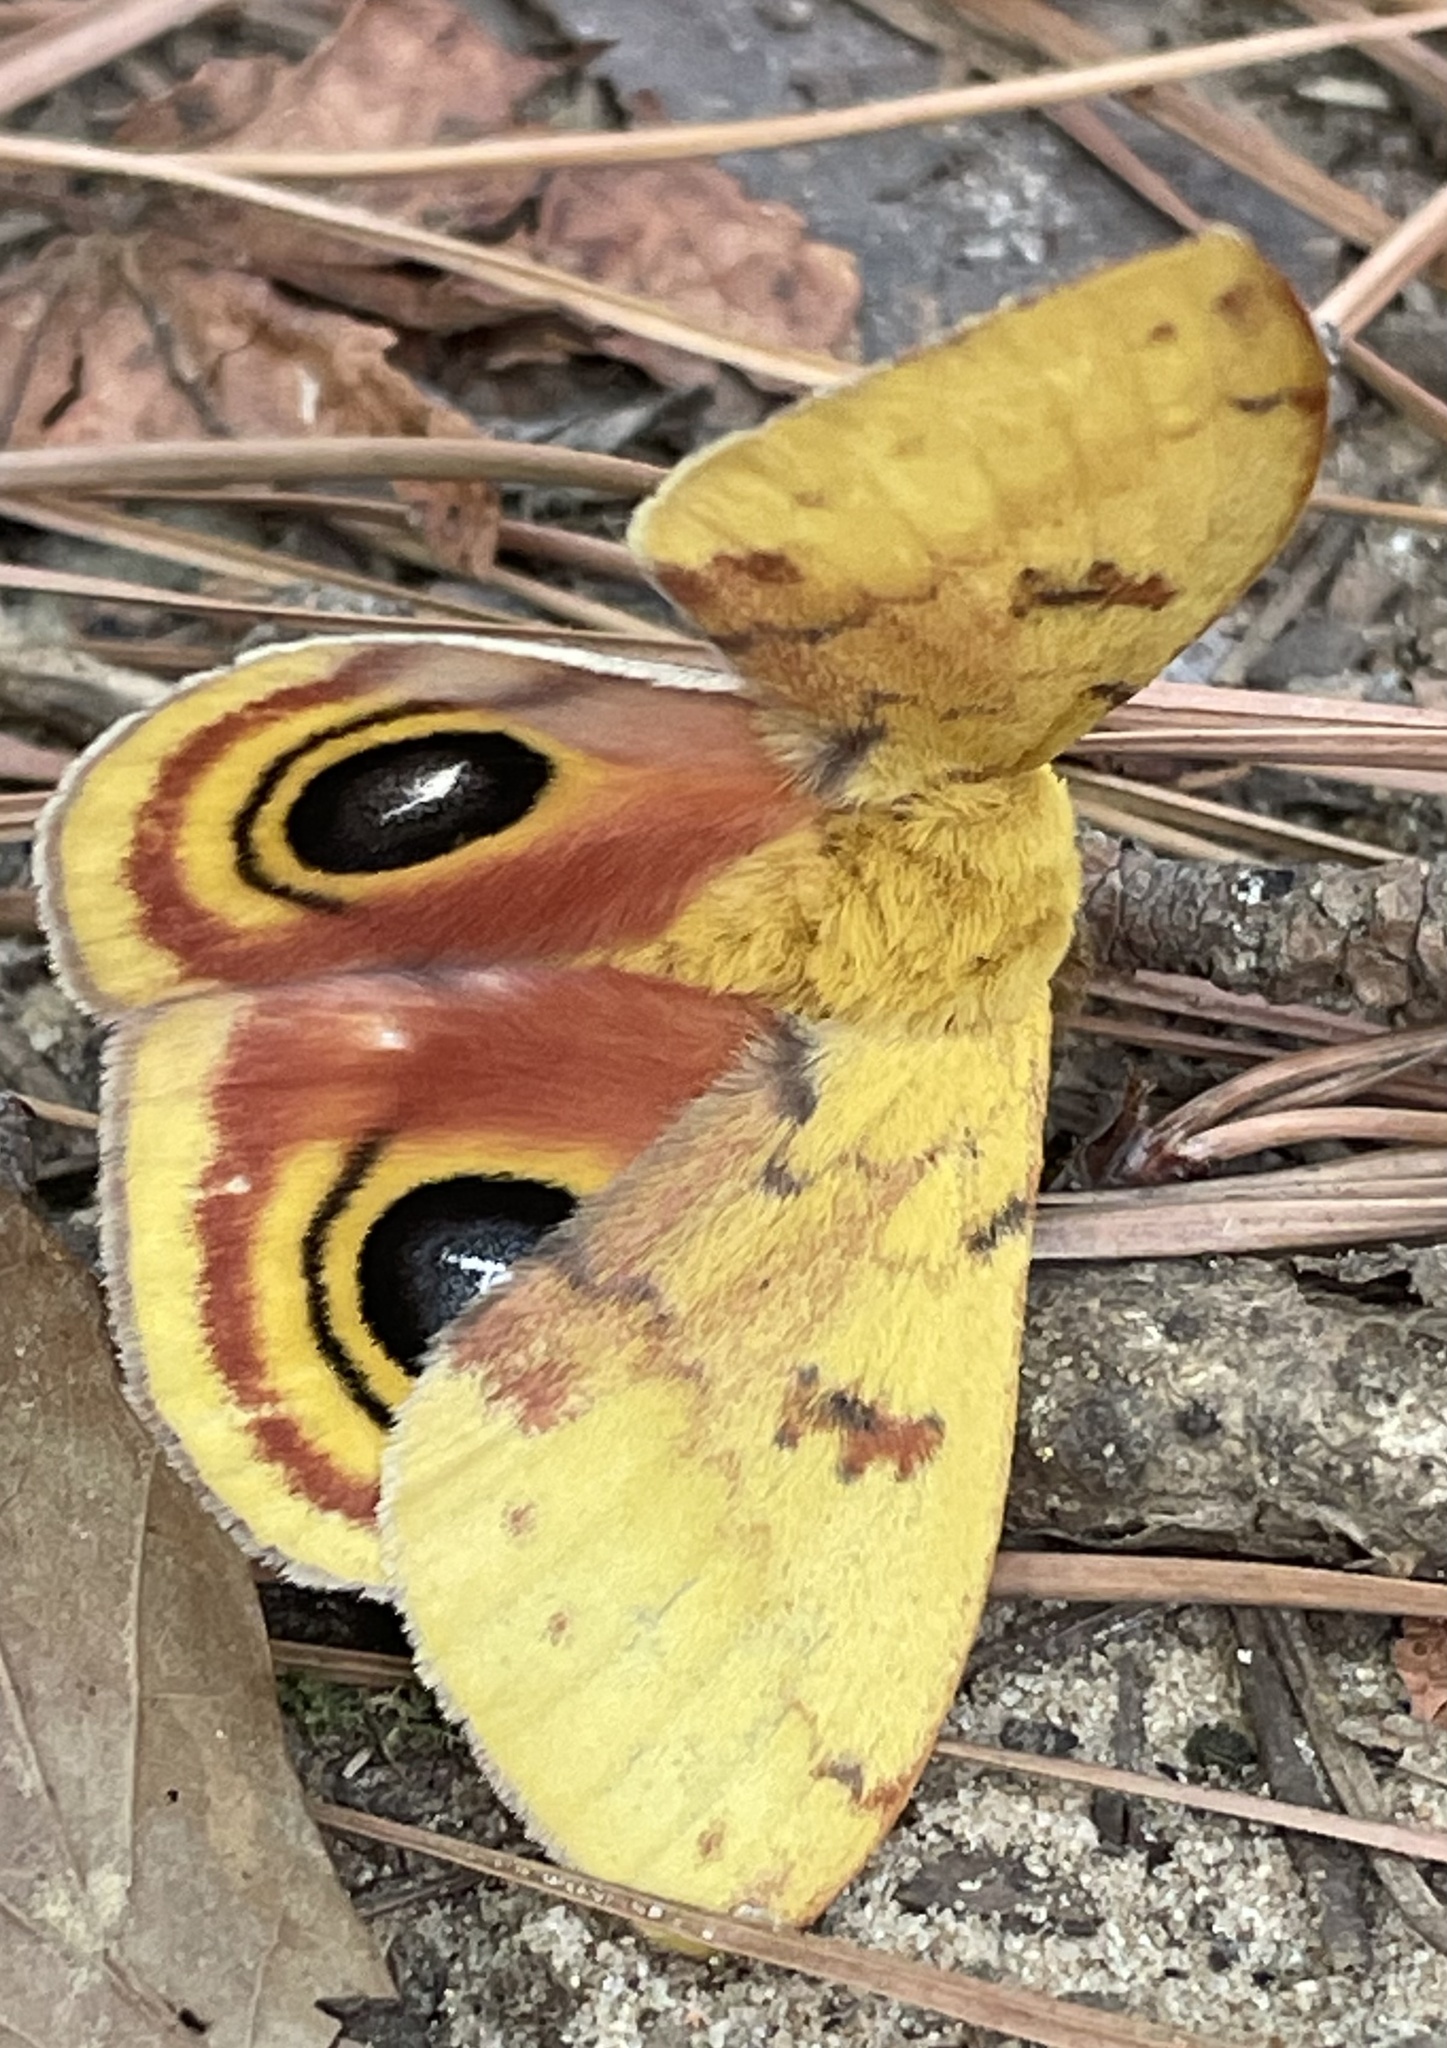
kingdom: Animalia
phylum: Arthropoda
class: Insecta
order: Lepidoptera
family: Saturniidae
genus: Automeris
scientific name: Automeris io
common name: Io moth
